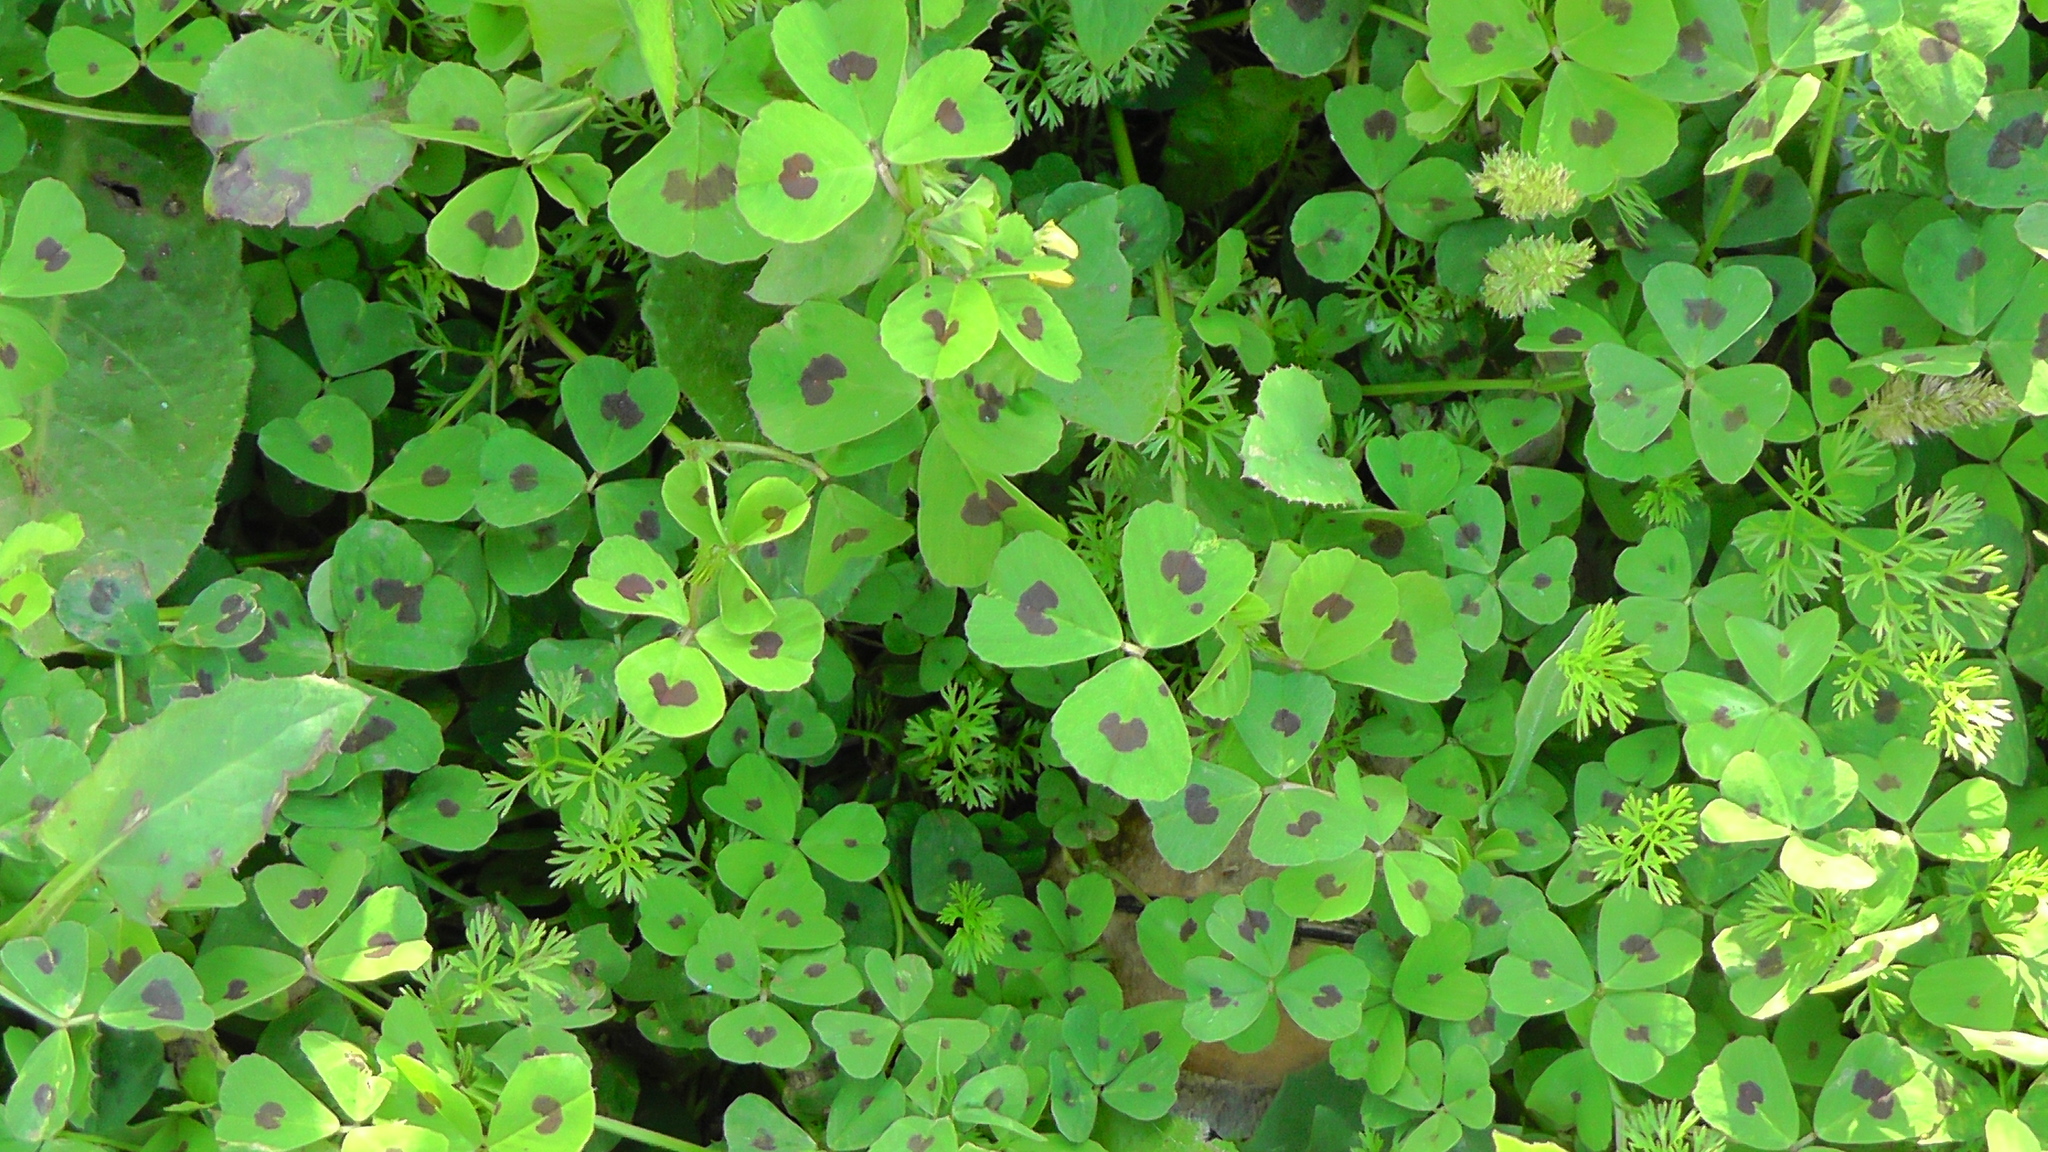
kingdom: Plantae
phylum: Tracheophyta
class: Magnoliopsida
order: Fabales
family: Fabaceae
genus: Medicago
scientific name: Medicago arabica
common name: Spotted medick
